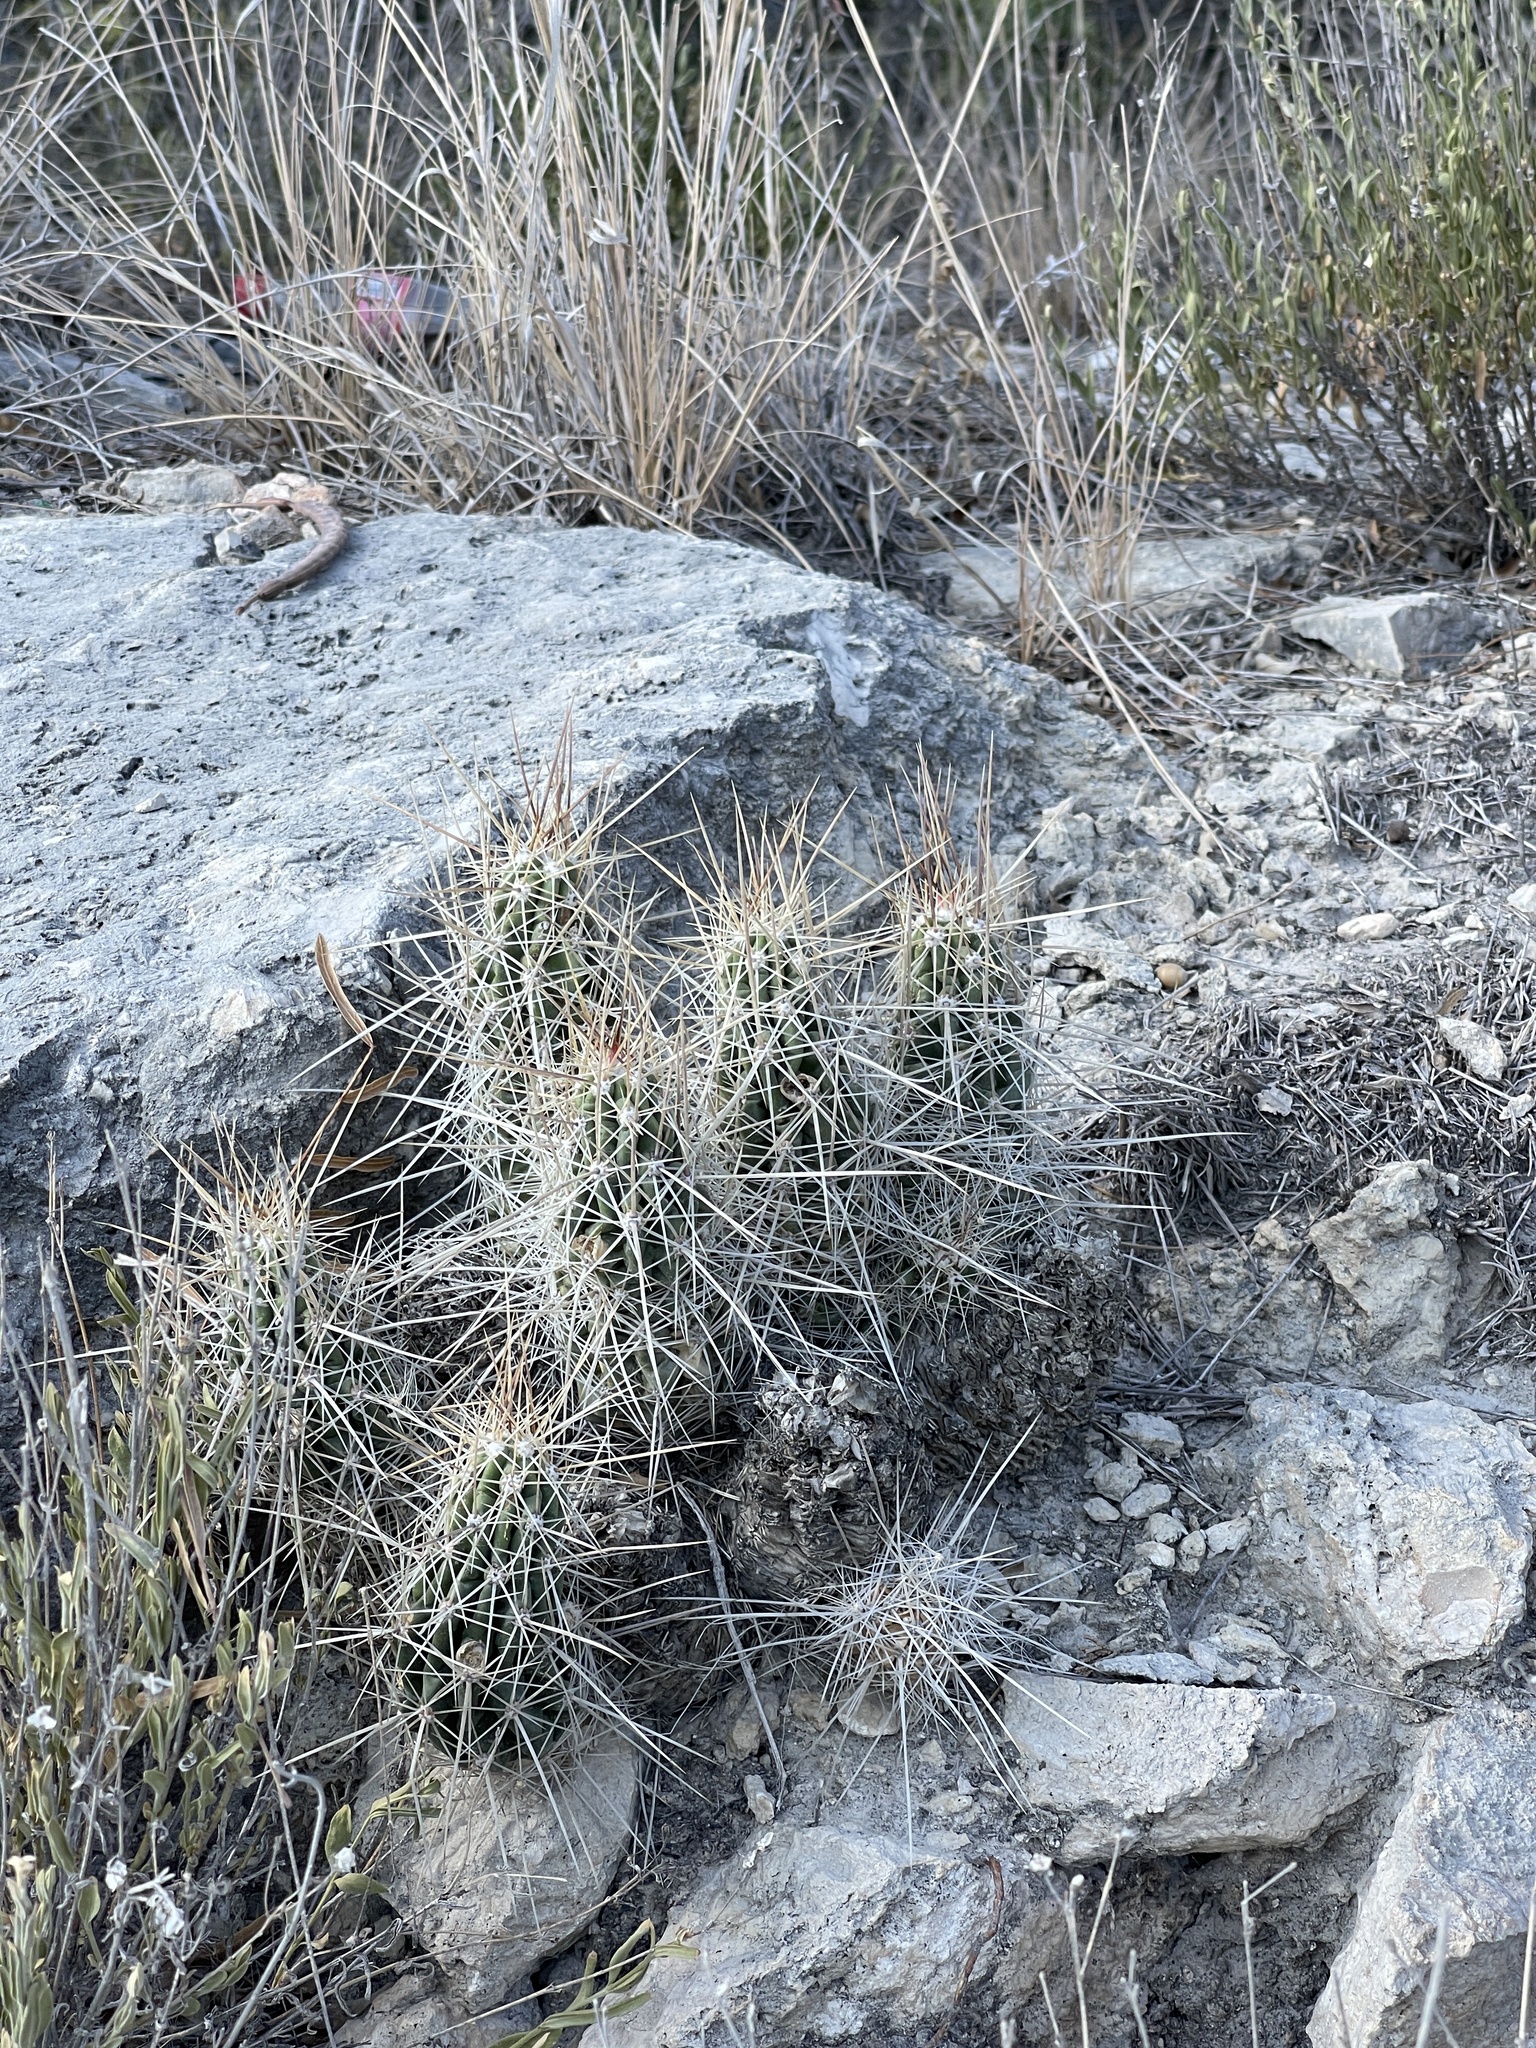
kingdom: Plantae
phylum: Tracheophyta
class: Magnoliopsida
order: Caryophyllales
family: Cactaceae
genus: Echinocereus
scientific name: Echinocereus enneacanthus
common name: Pitaya
